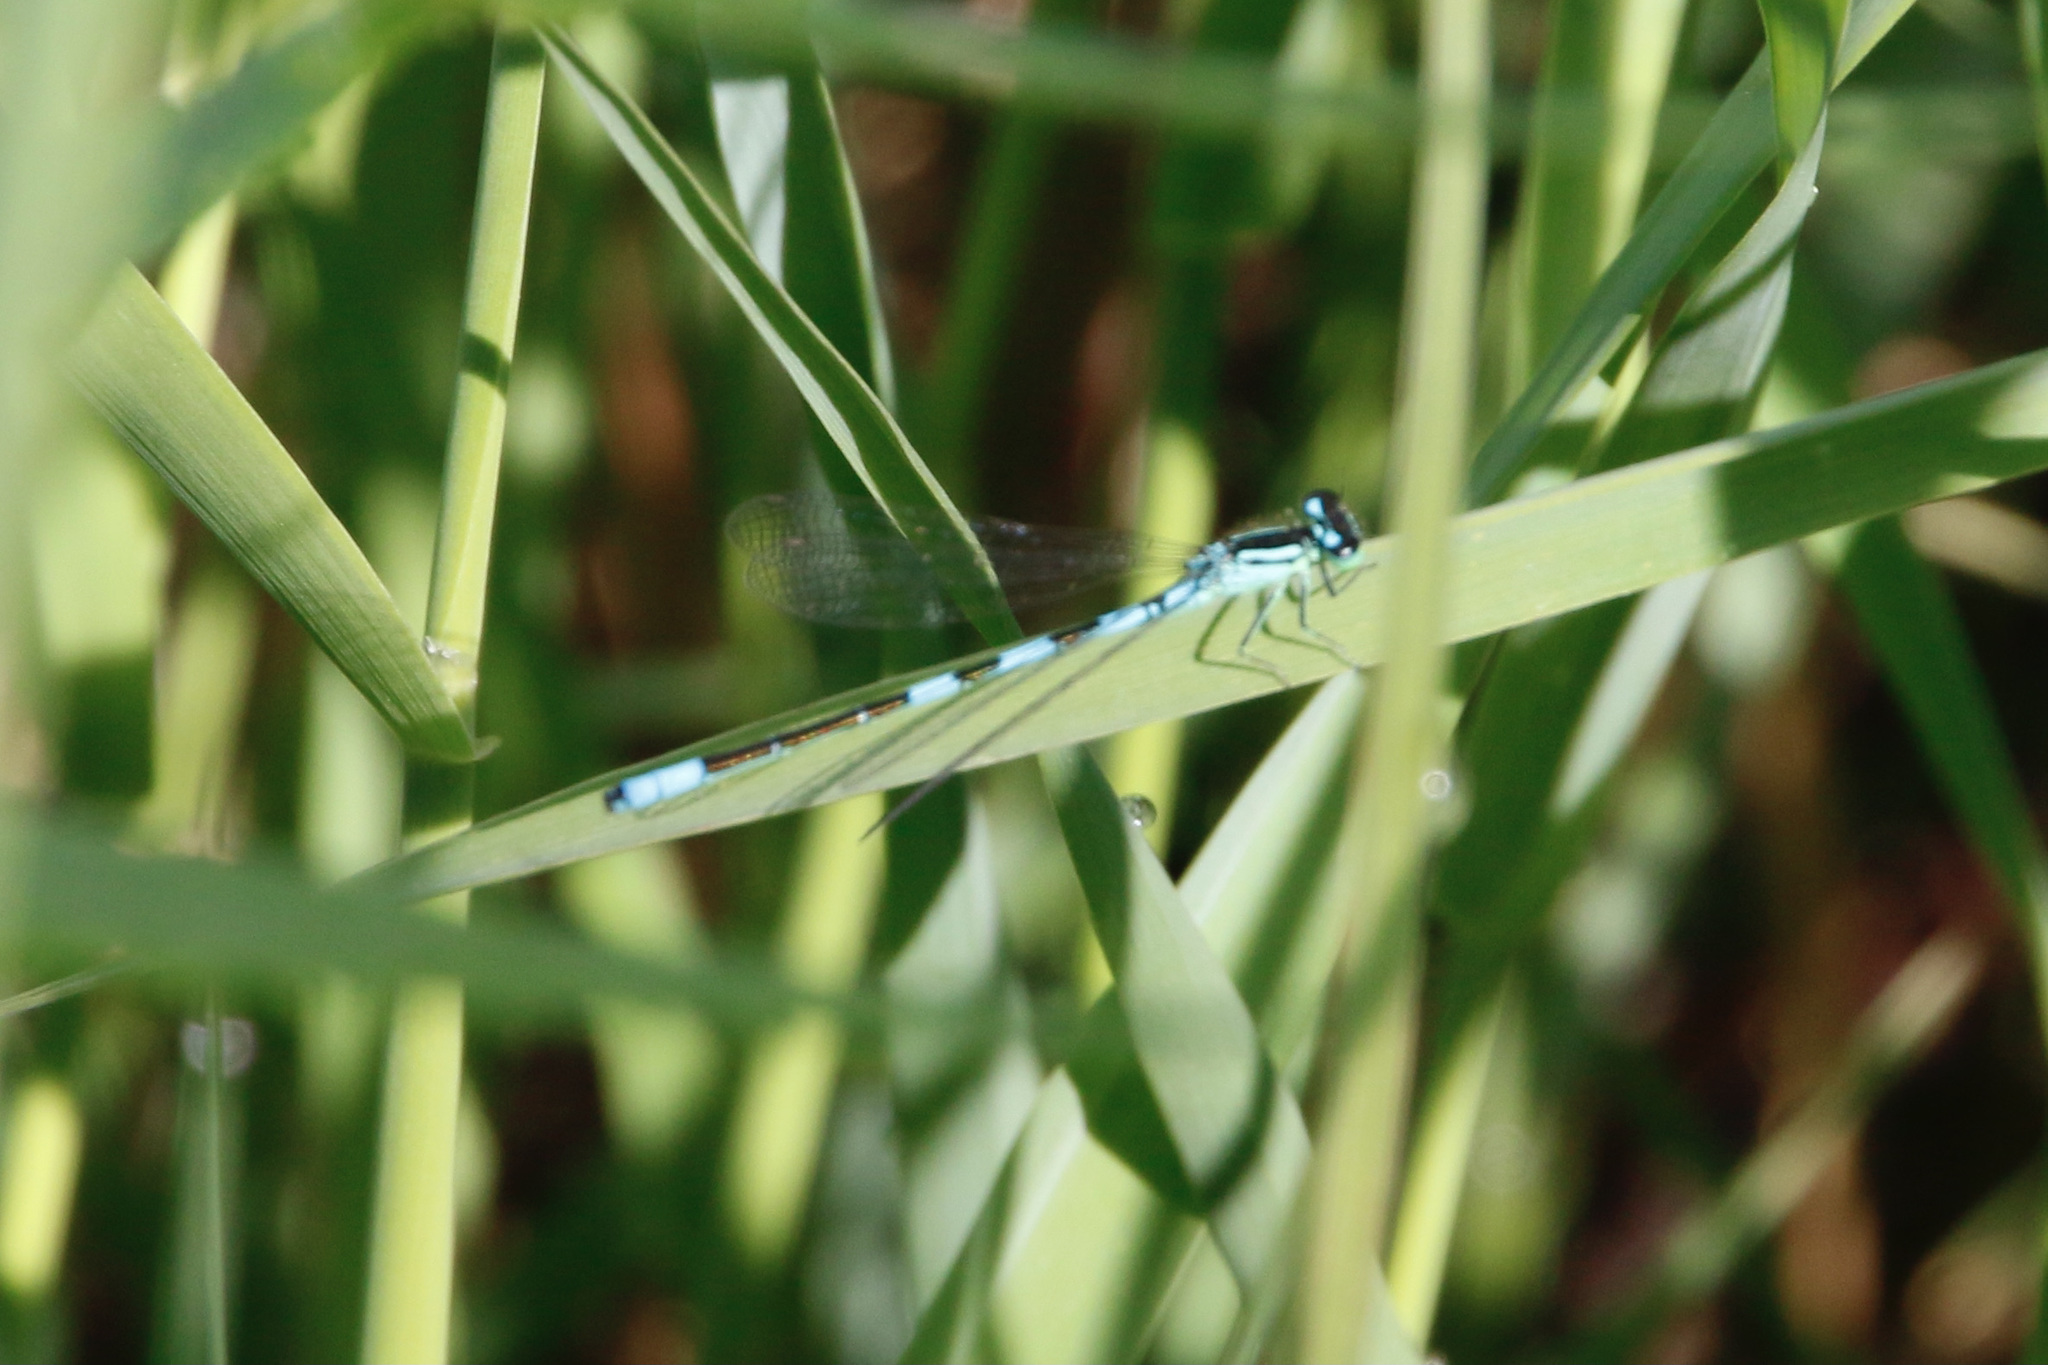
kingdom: Animalia
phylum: Arthropoda
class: Insecta
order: Odonata
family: Coenagrionidae
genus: Coenagrion
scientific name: Coenagrion resolutum
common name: Taiga bluet
